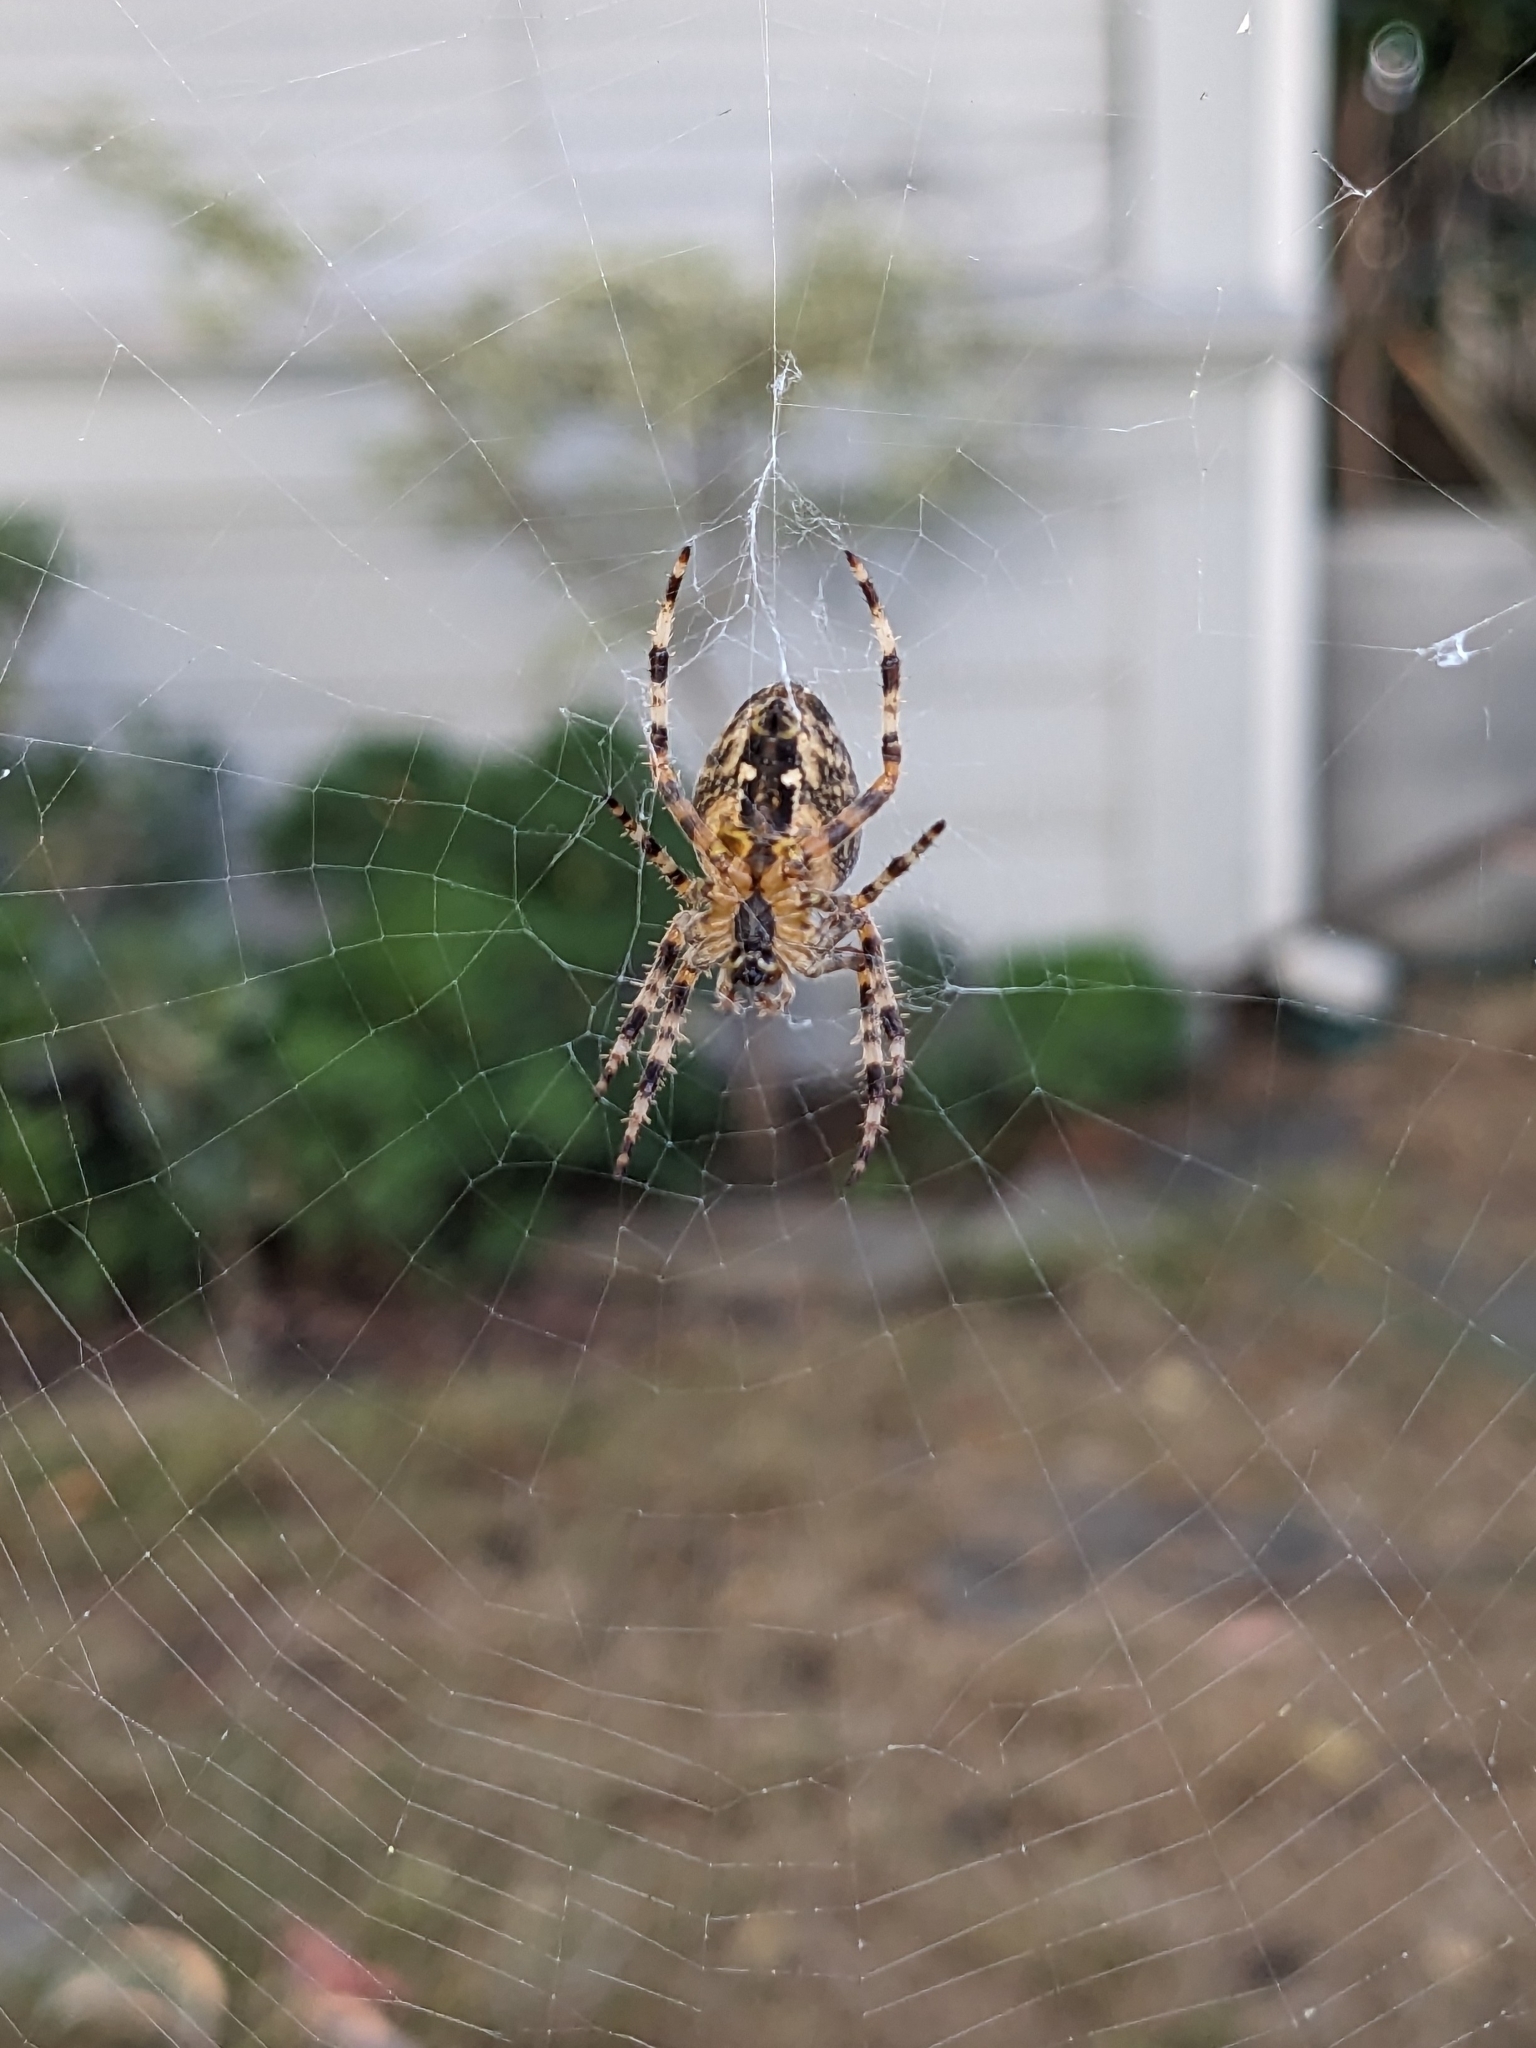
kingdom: Animalia
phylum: Arthropoda
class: Arachnida
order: Araneae
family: Araneidae
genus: Araneus
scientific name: Araneus diadematus
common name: Cross orbweaver
